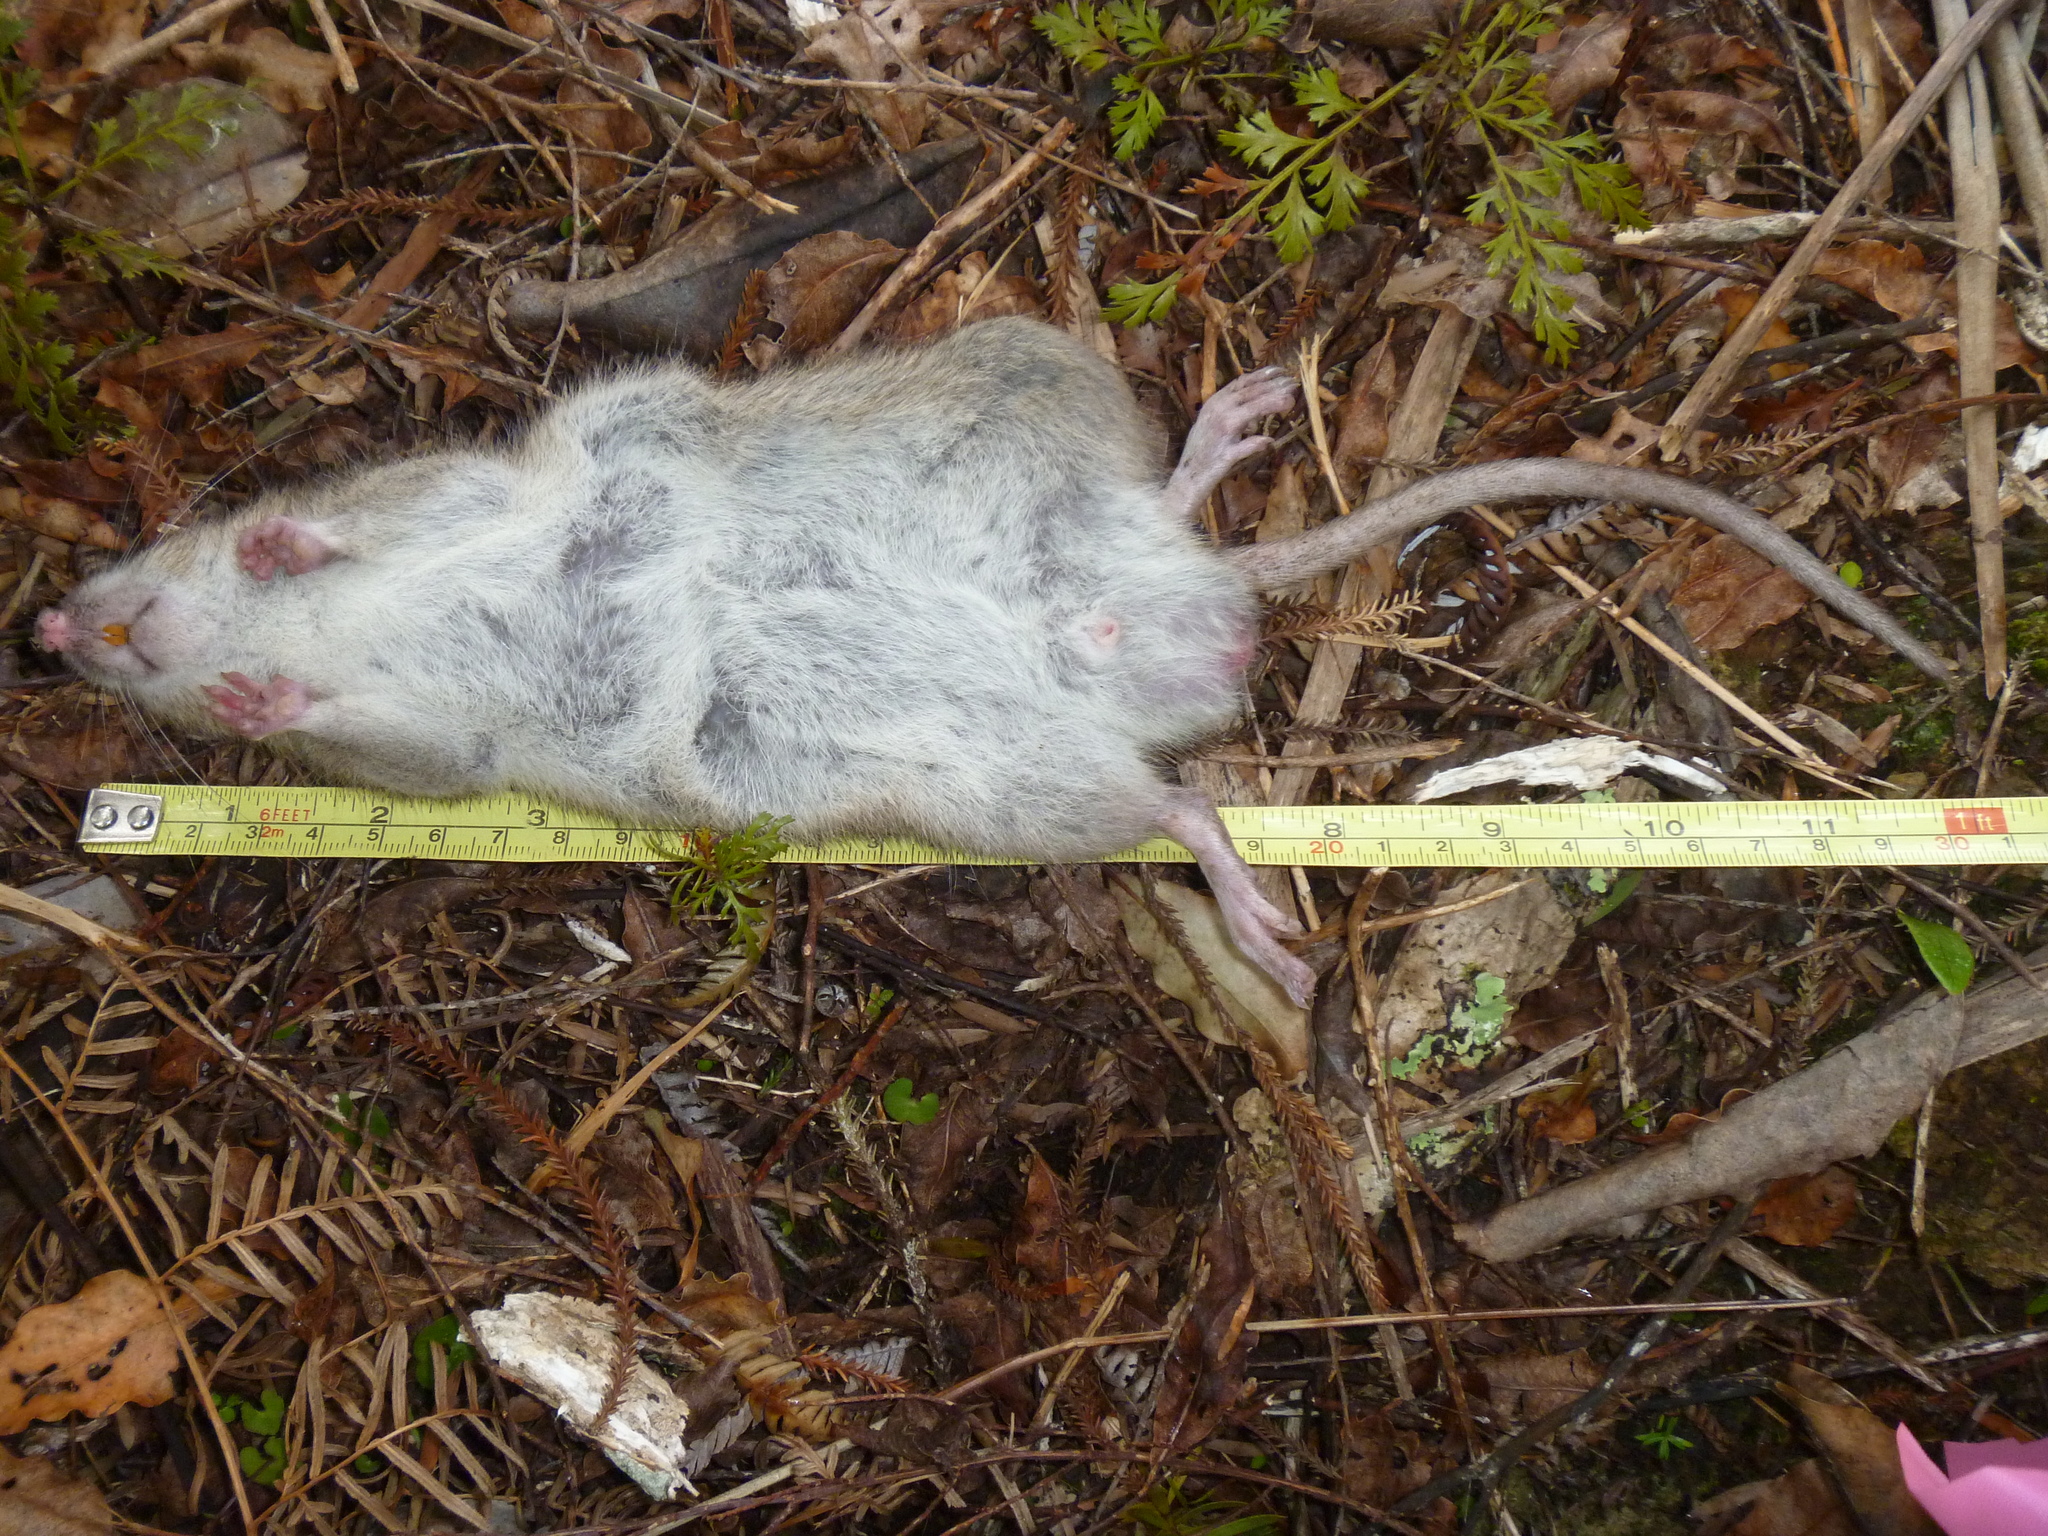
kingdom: Animalia
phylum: Chordata
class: Mammalia
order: Rodentia
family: Muridae
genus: Rattus
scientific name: Rattus norvegicus
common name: Brown rat
